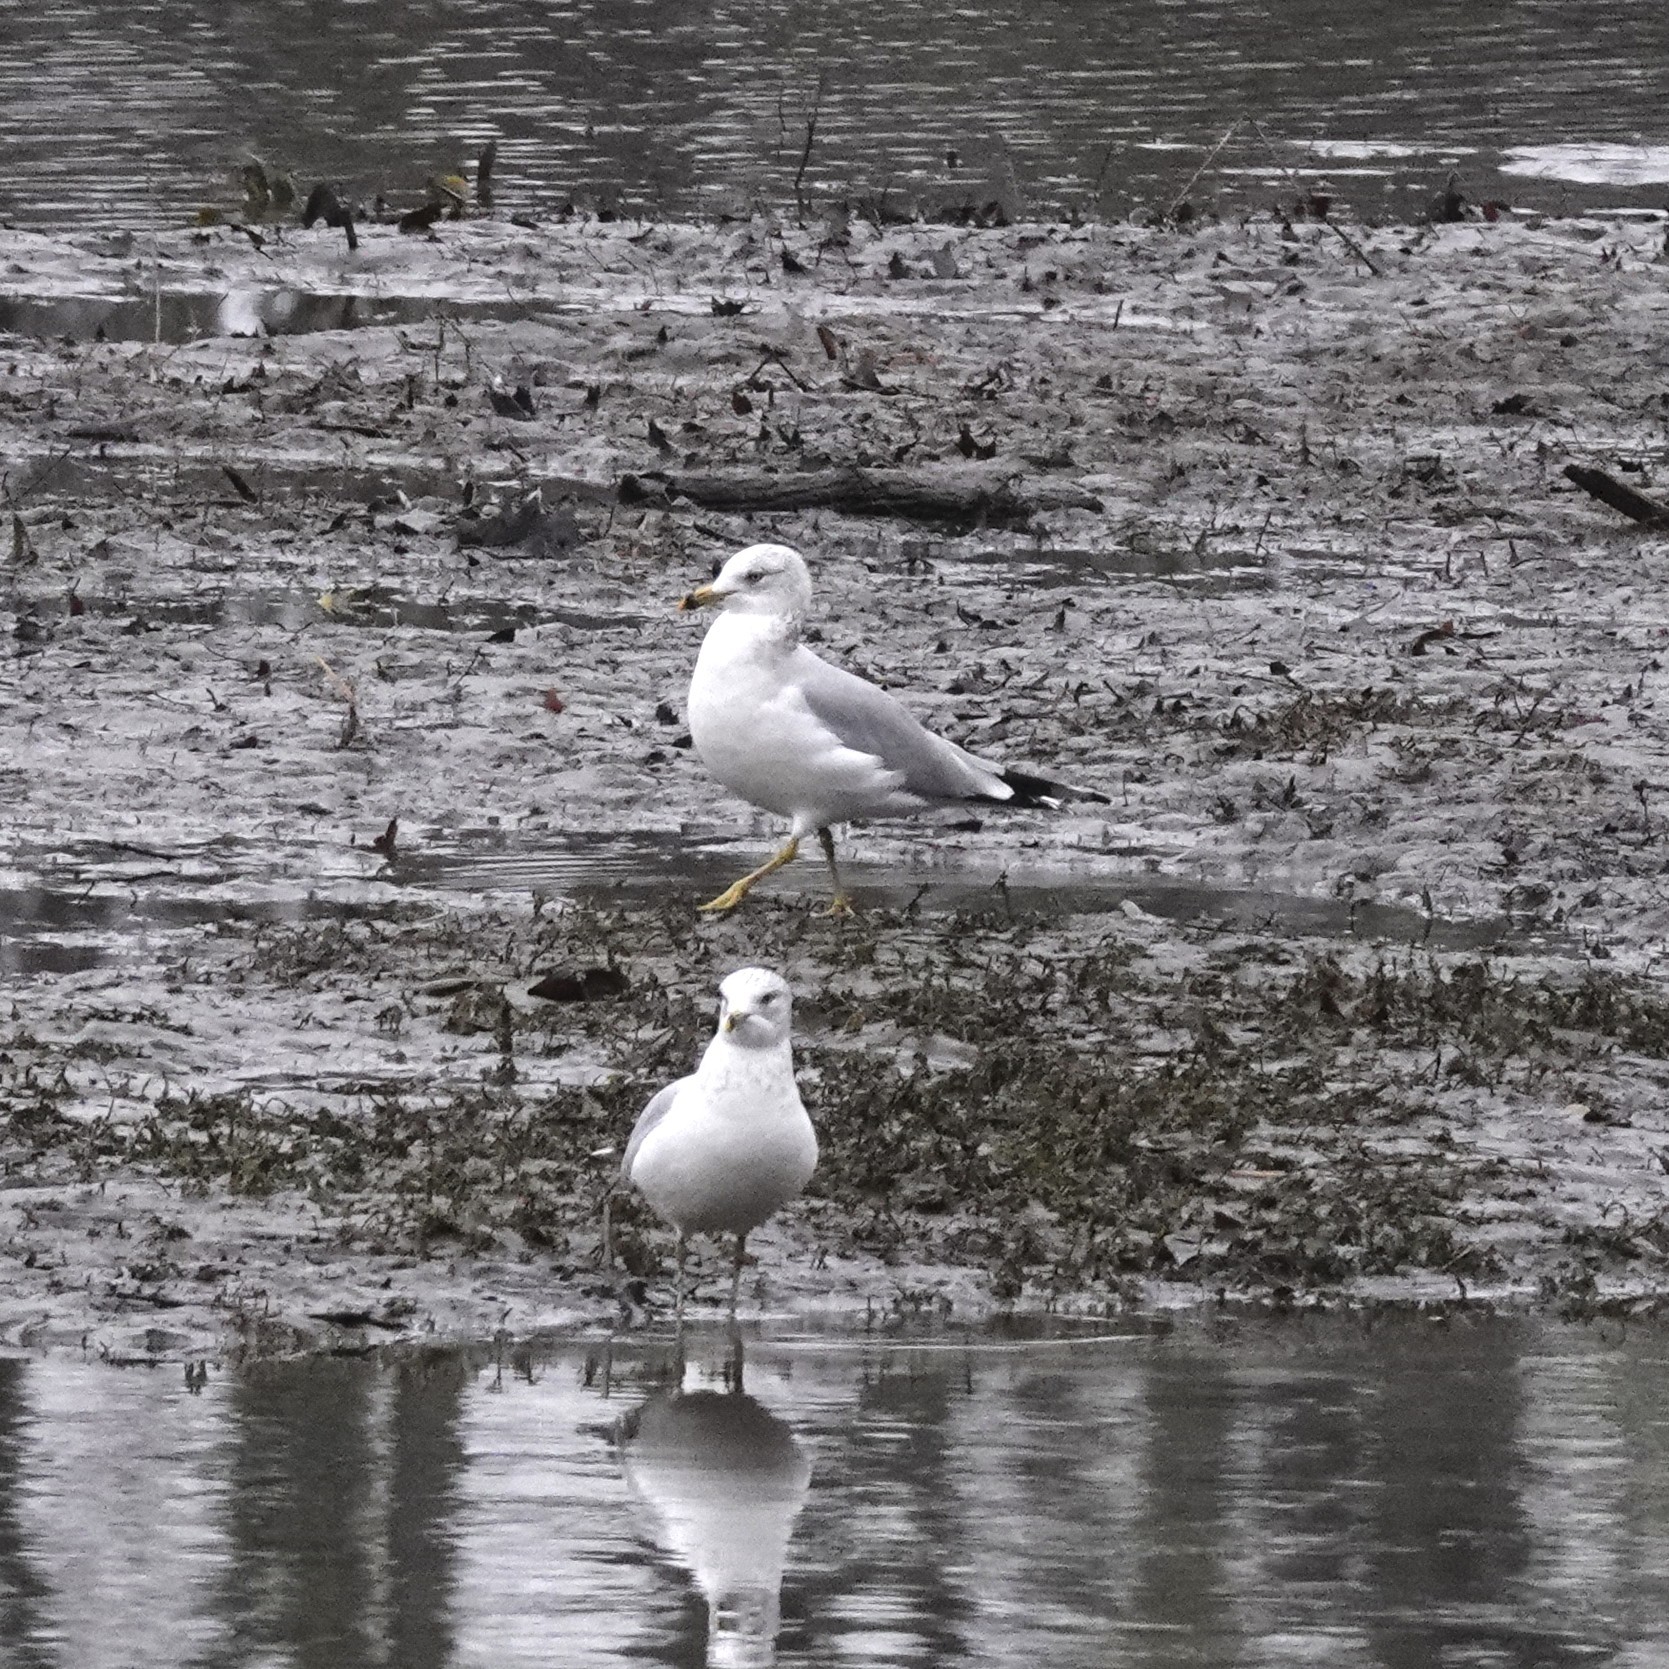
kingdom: Animalia
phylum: Chordata
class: Aves
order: Charadriiformes
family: Laridae
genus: Larus
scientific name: Larus delawarensis
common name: Ring-billed gull
